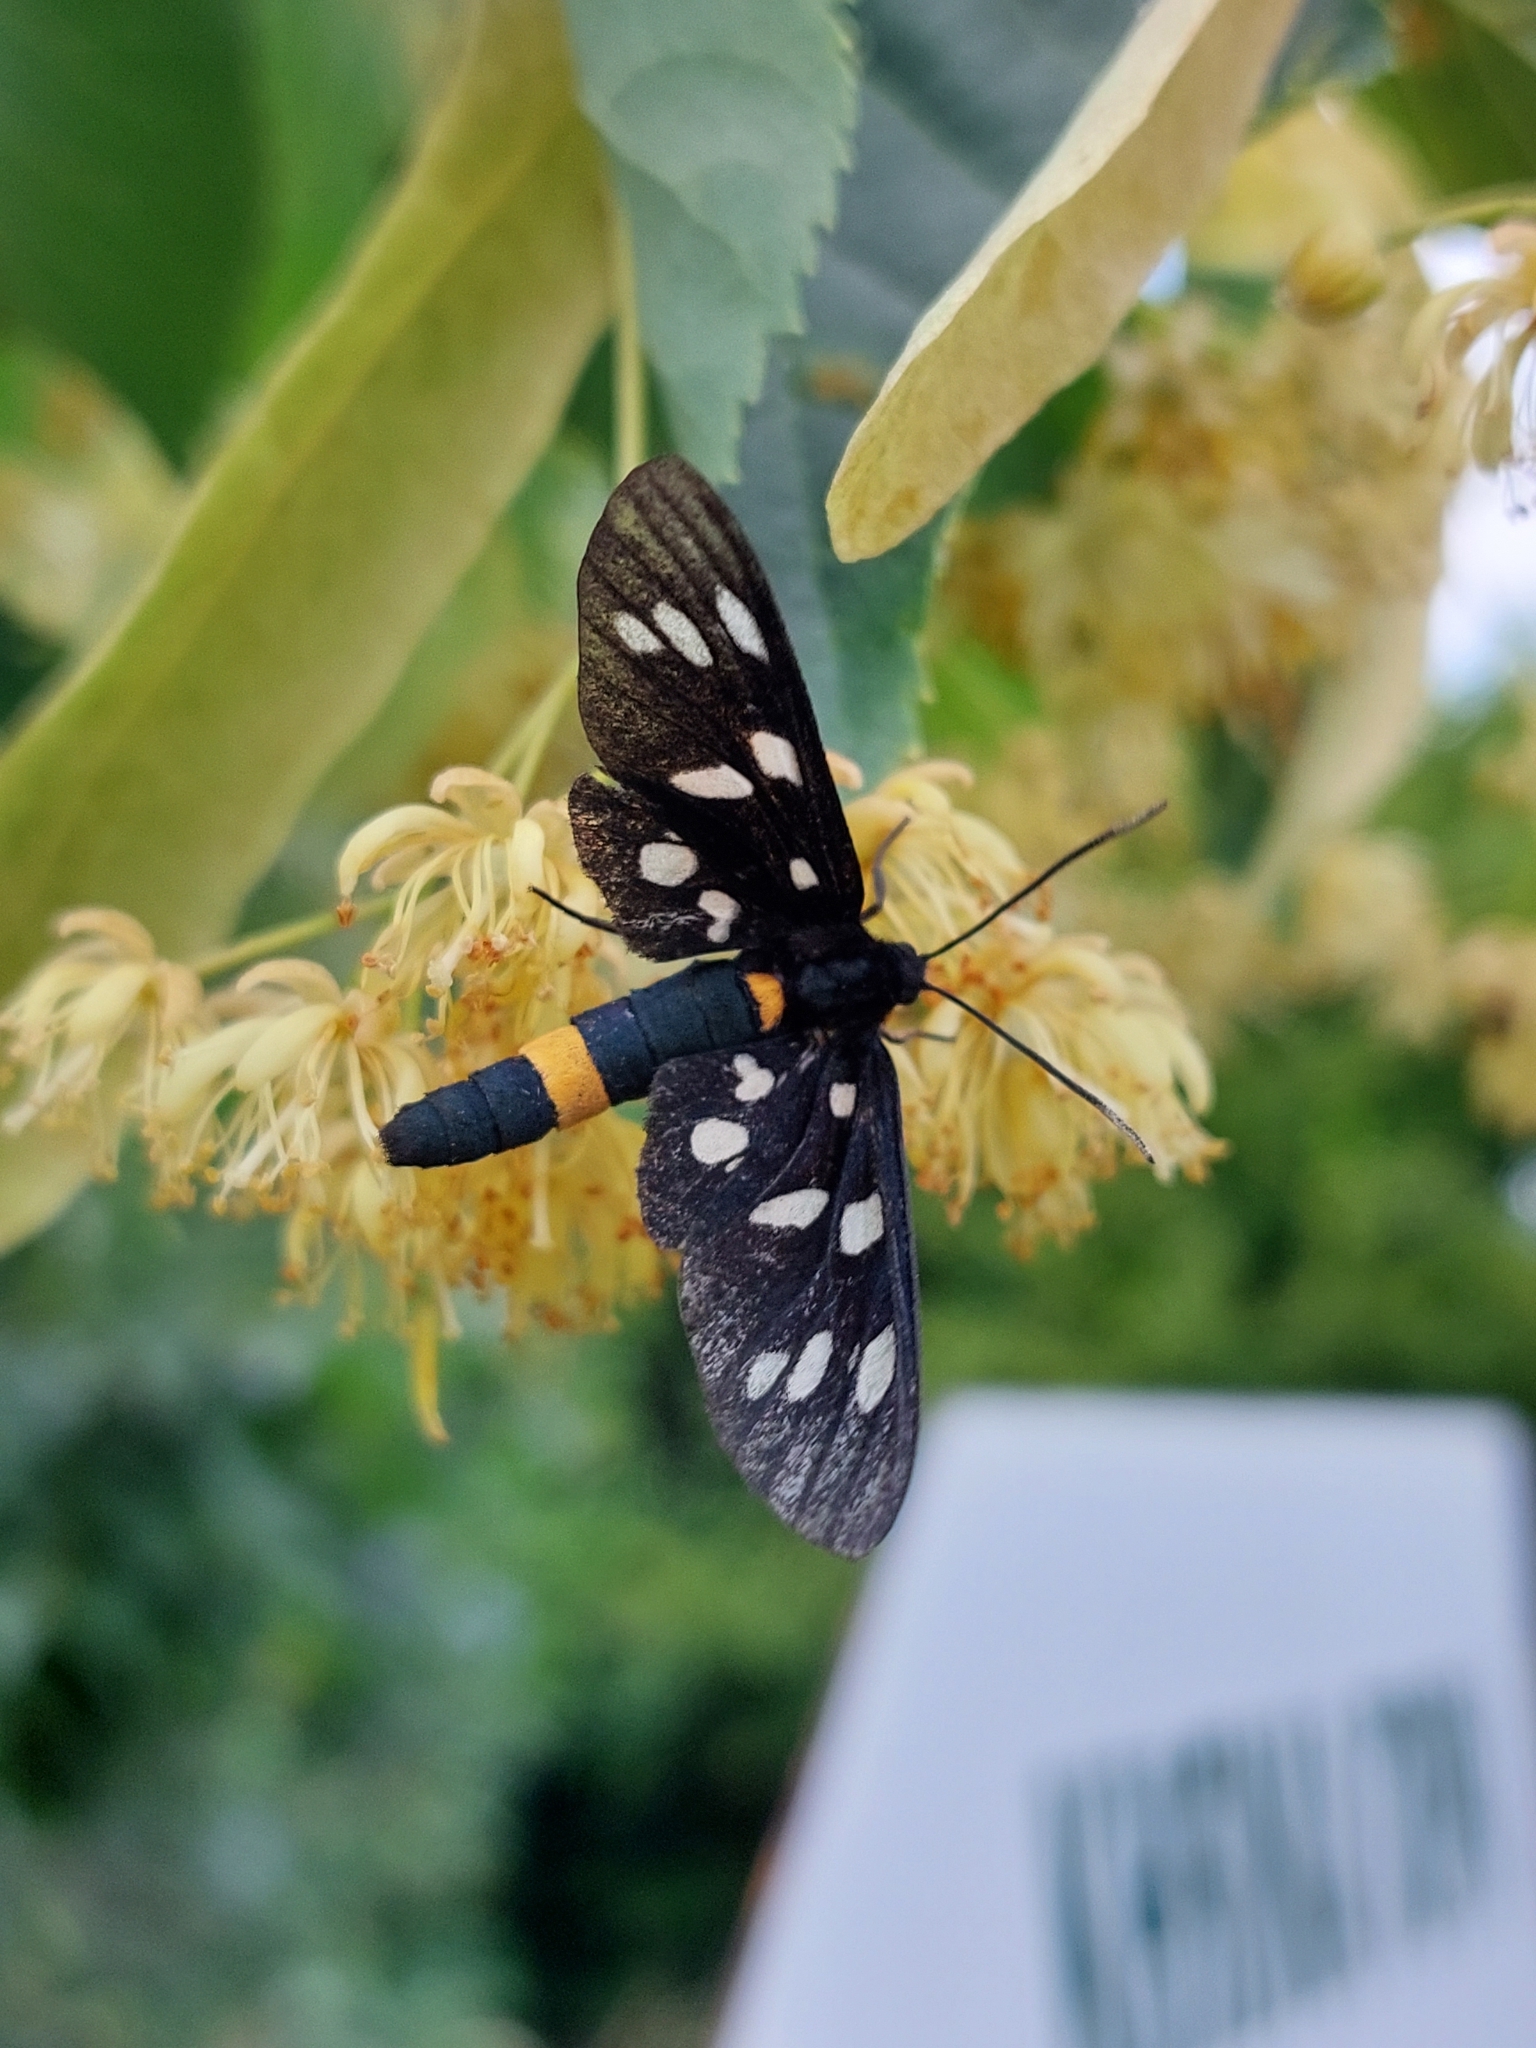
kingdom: Animalia
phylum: Arthropoda
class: Insecta
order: Lepidoptera
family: Erebidae
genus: Amata
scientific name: Amata phegea
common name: Nine-spotted
